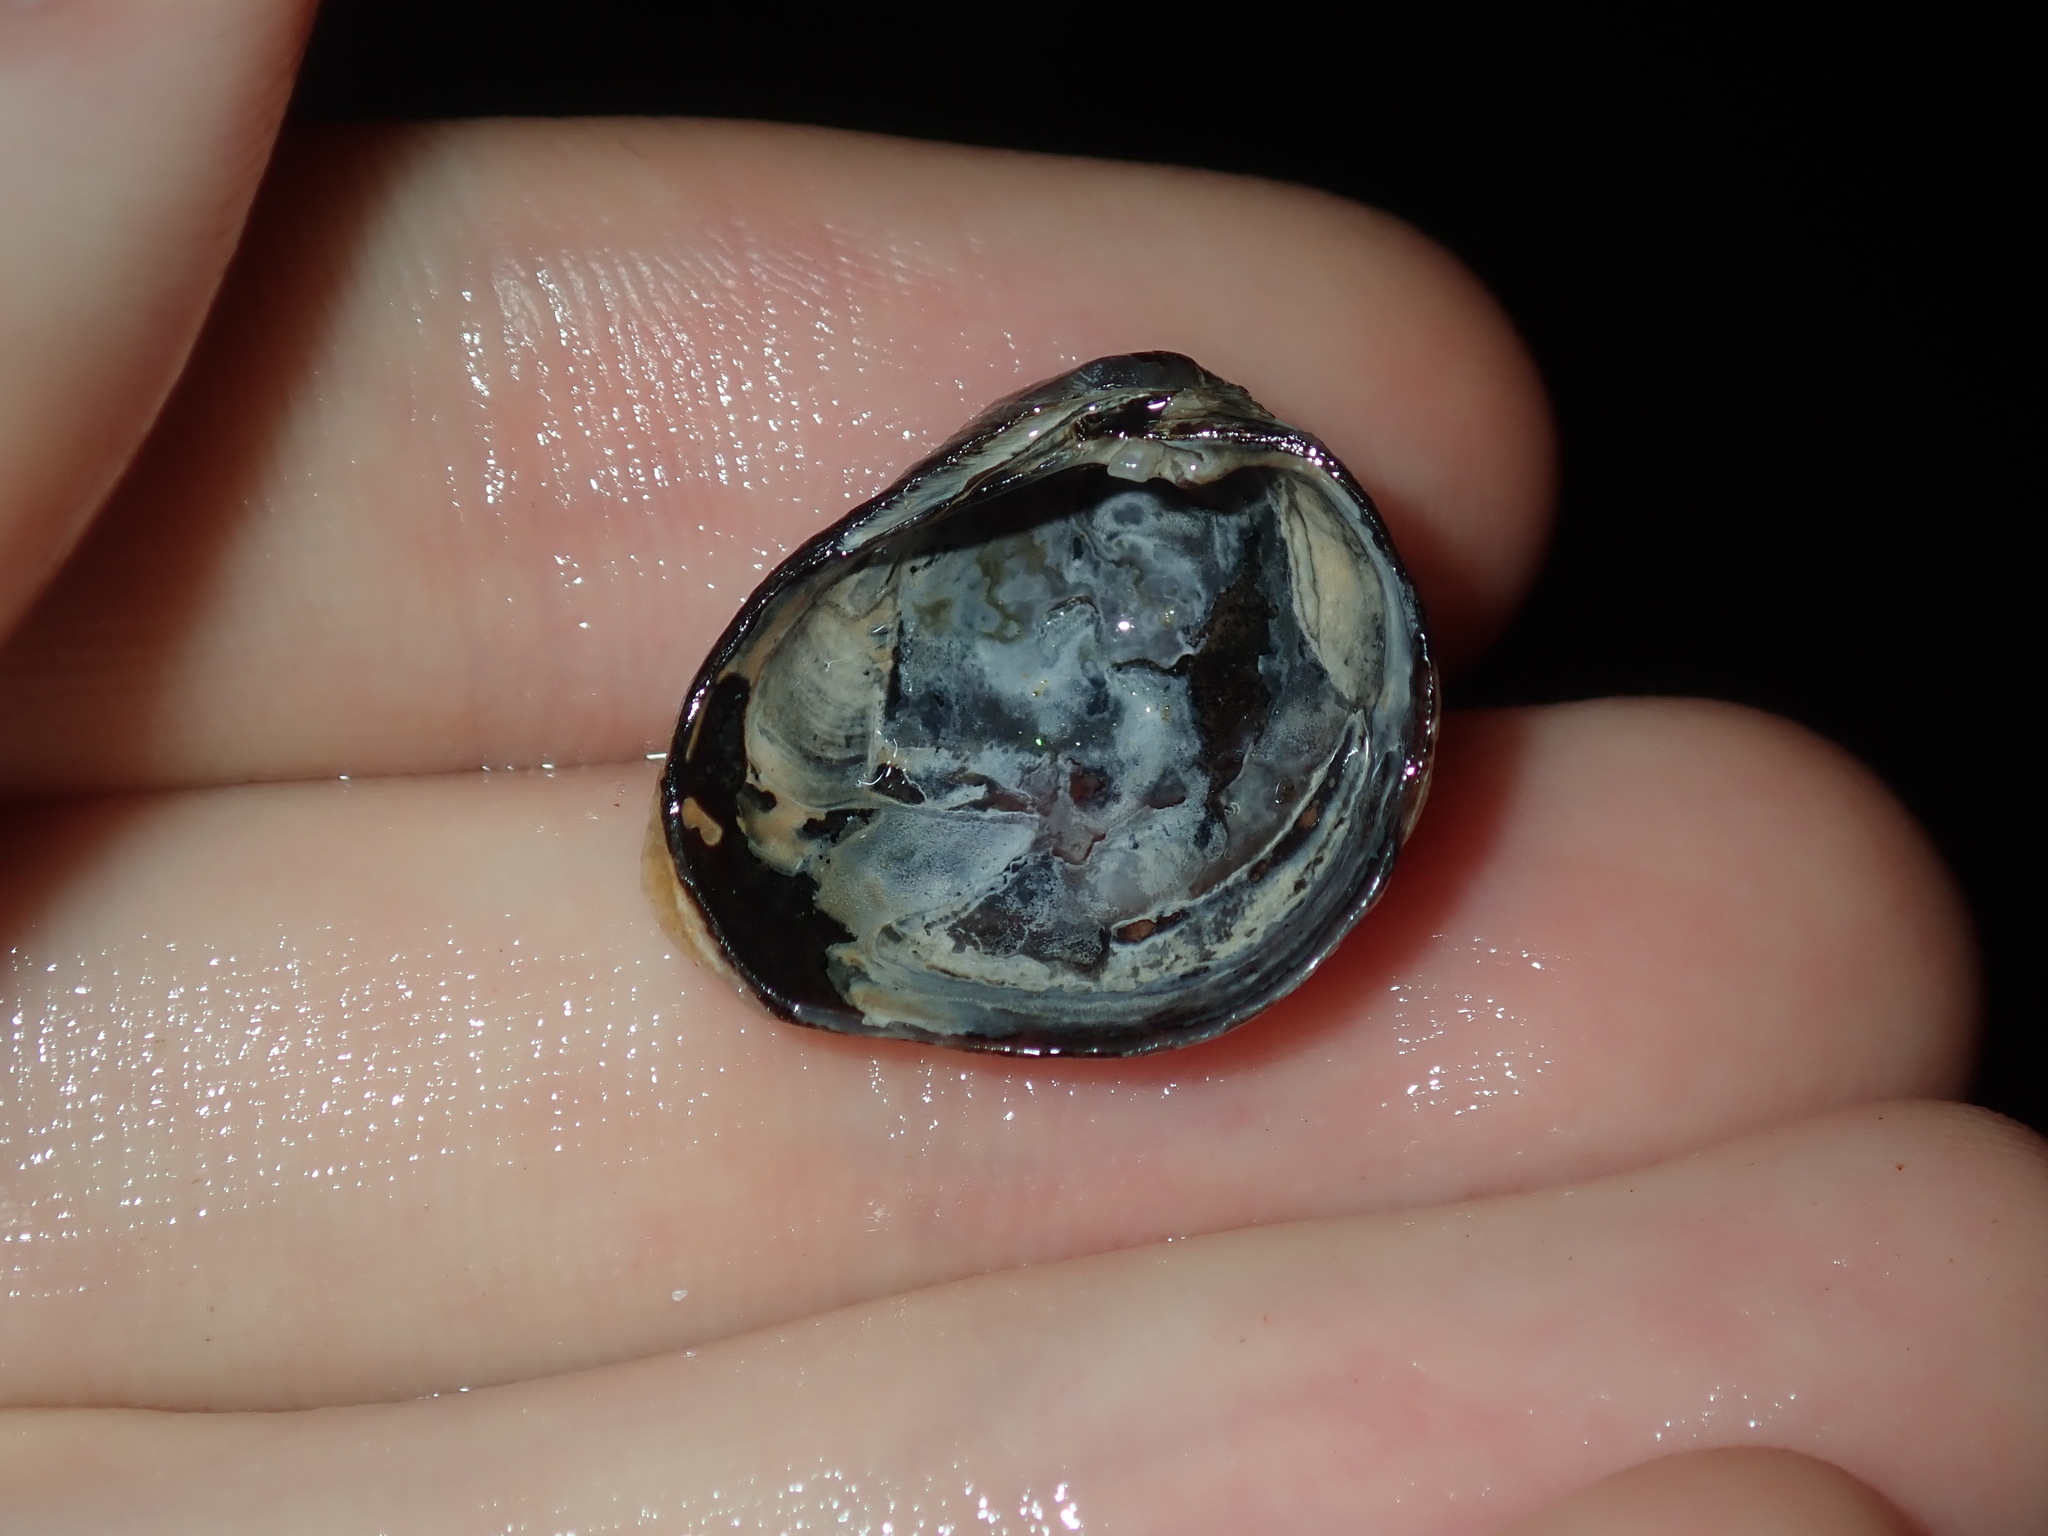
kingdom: Animalia
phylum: Mollusca
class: Bivalvia
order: Venerida
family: Veneridae
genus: Irus
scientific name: Irus cumingii
